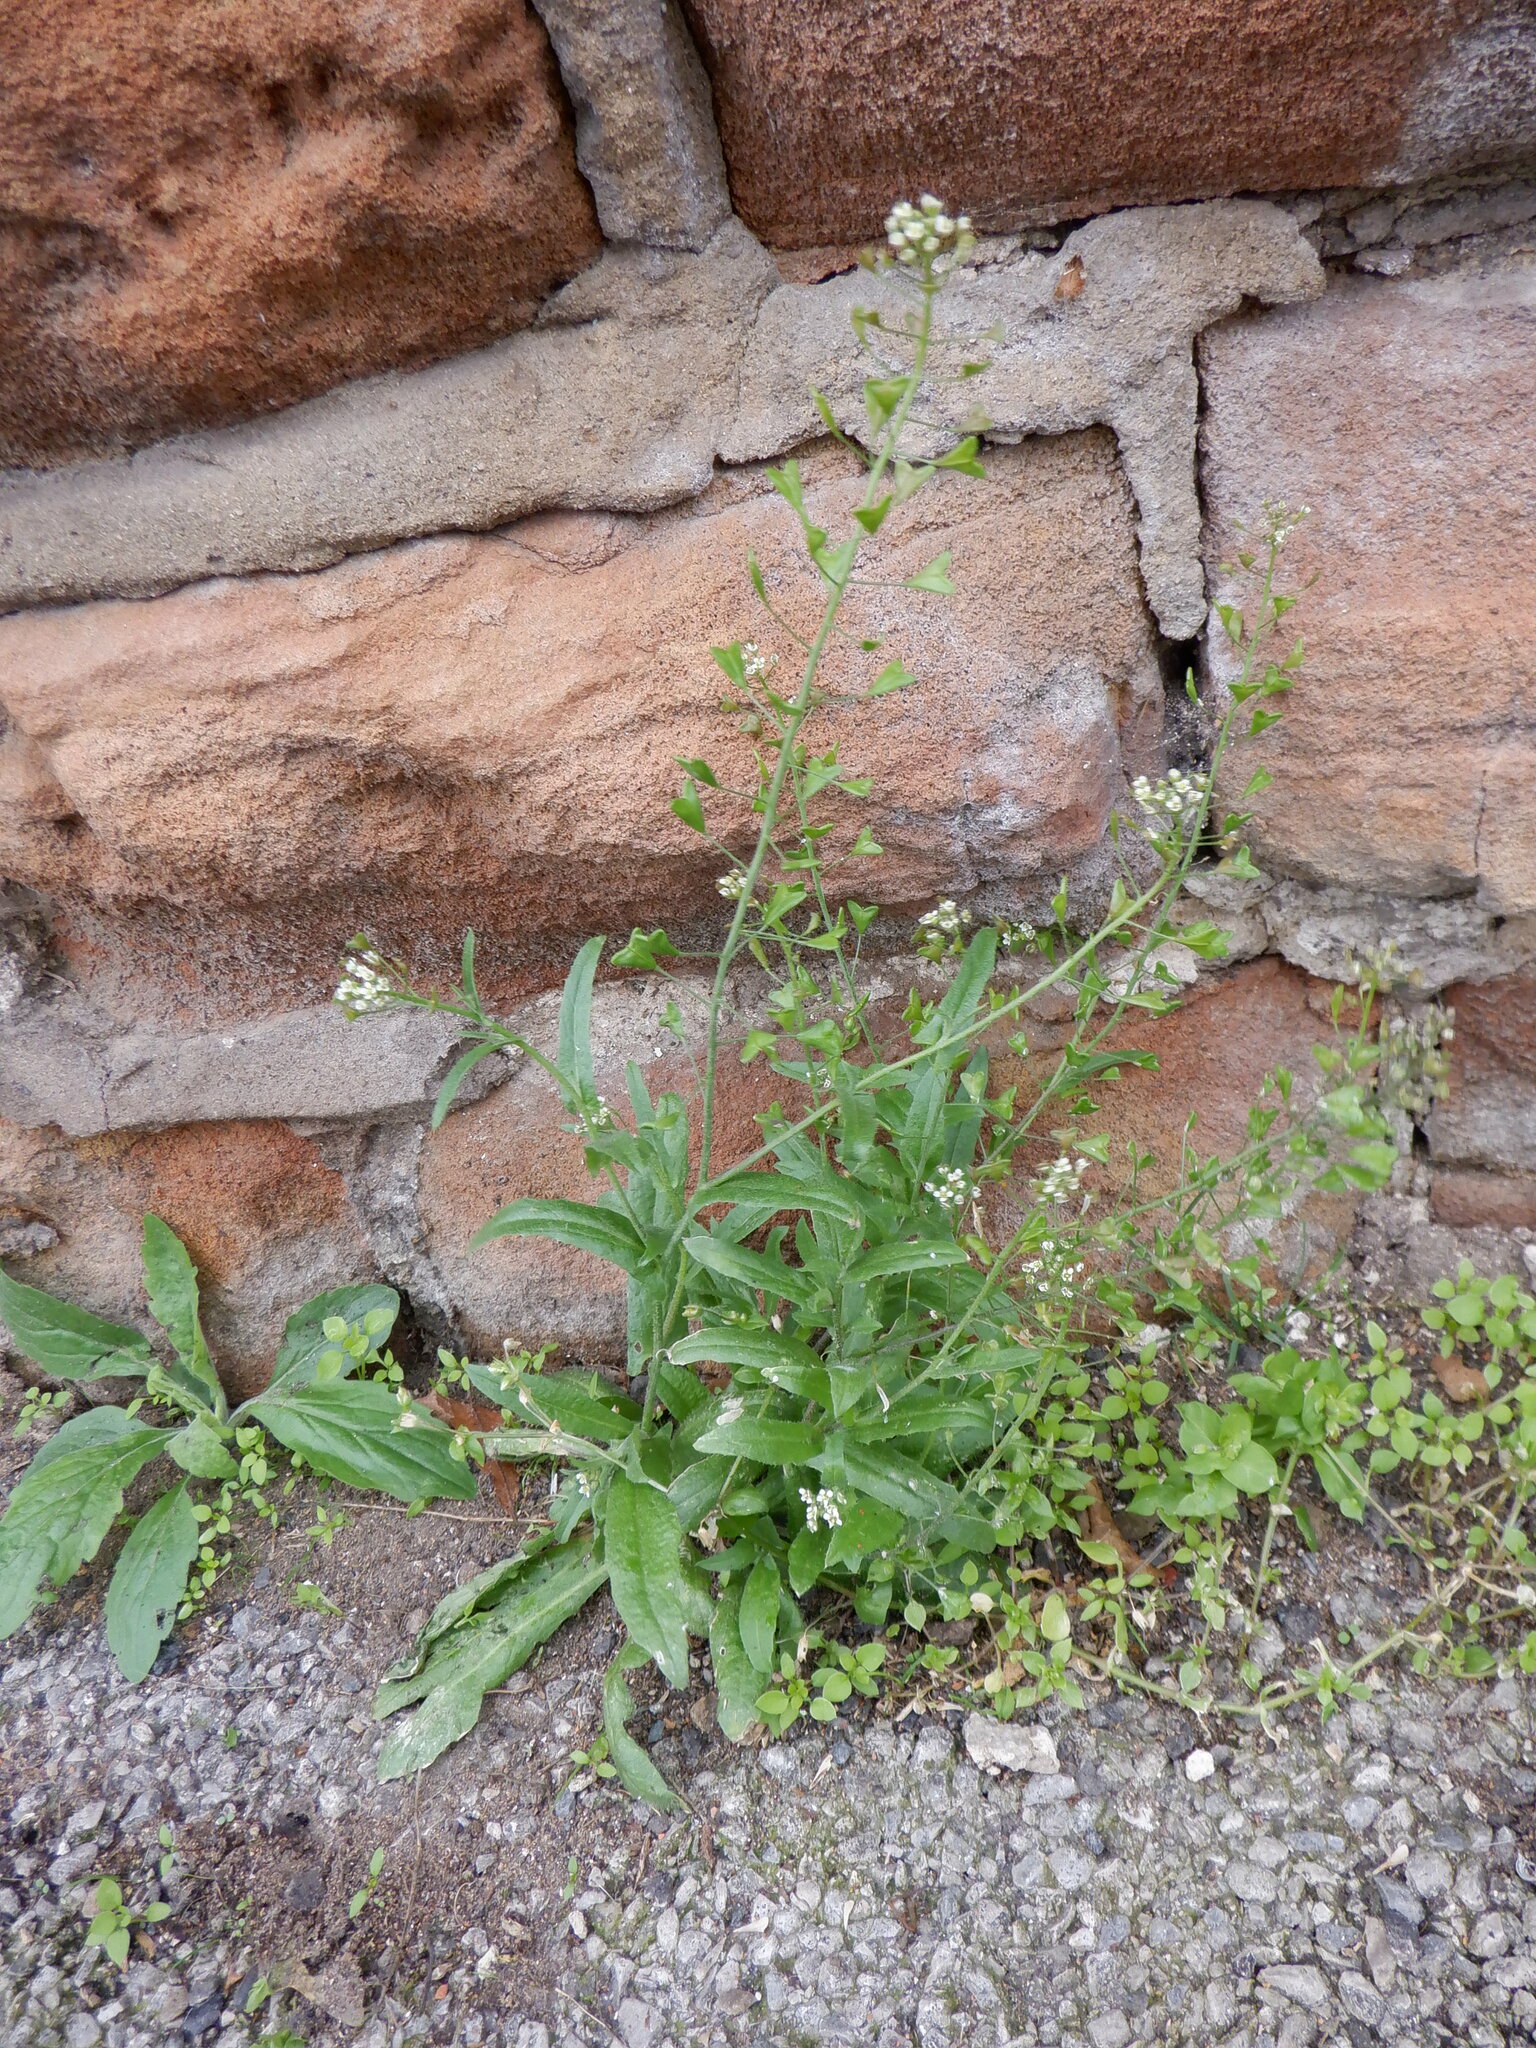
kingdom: Plantae
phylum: Tracheophyta
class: Magnoliopsida
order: Brassicales
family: Brassicaceae
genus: Capsella
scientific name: Capsella bursa-pastoris
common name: Shepherd's purse
